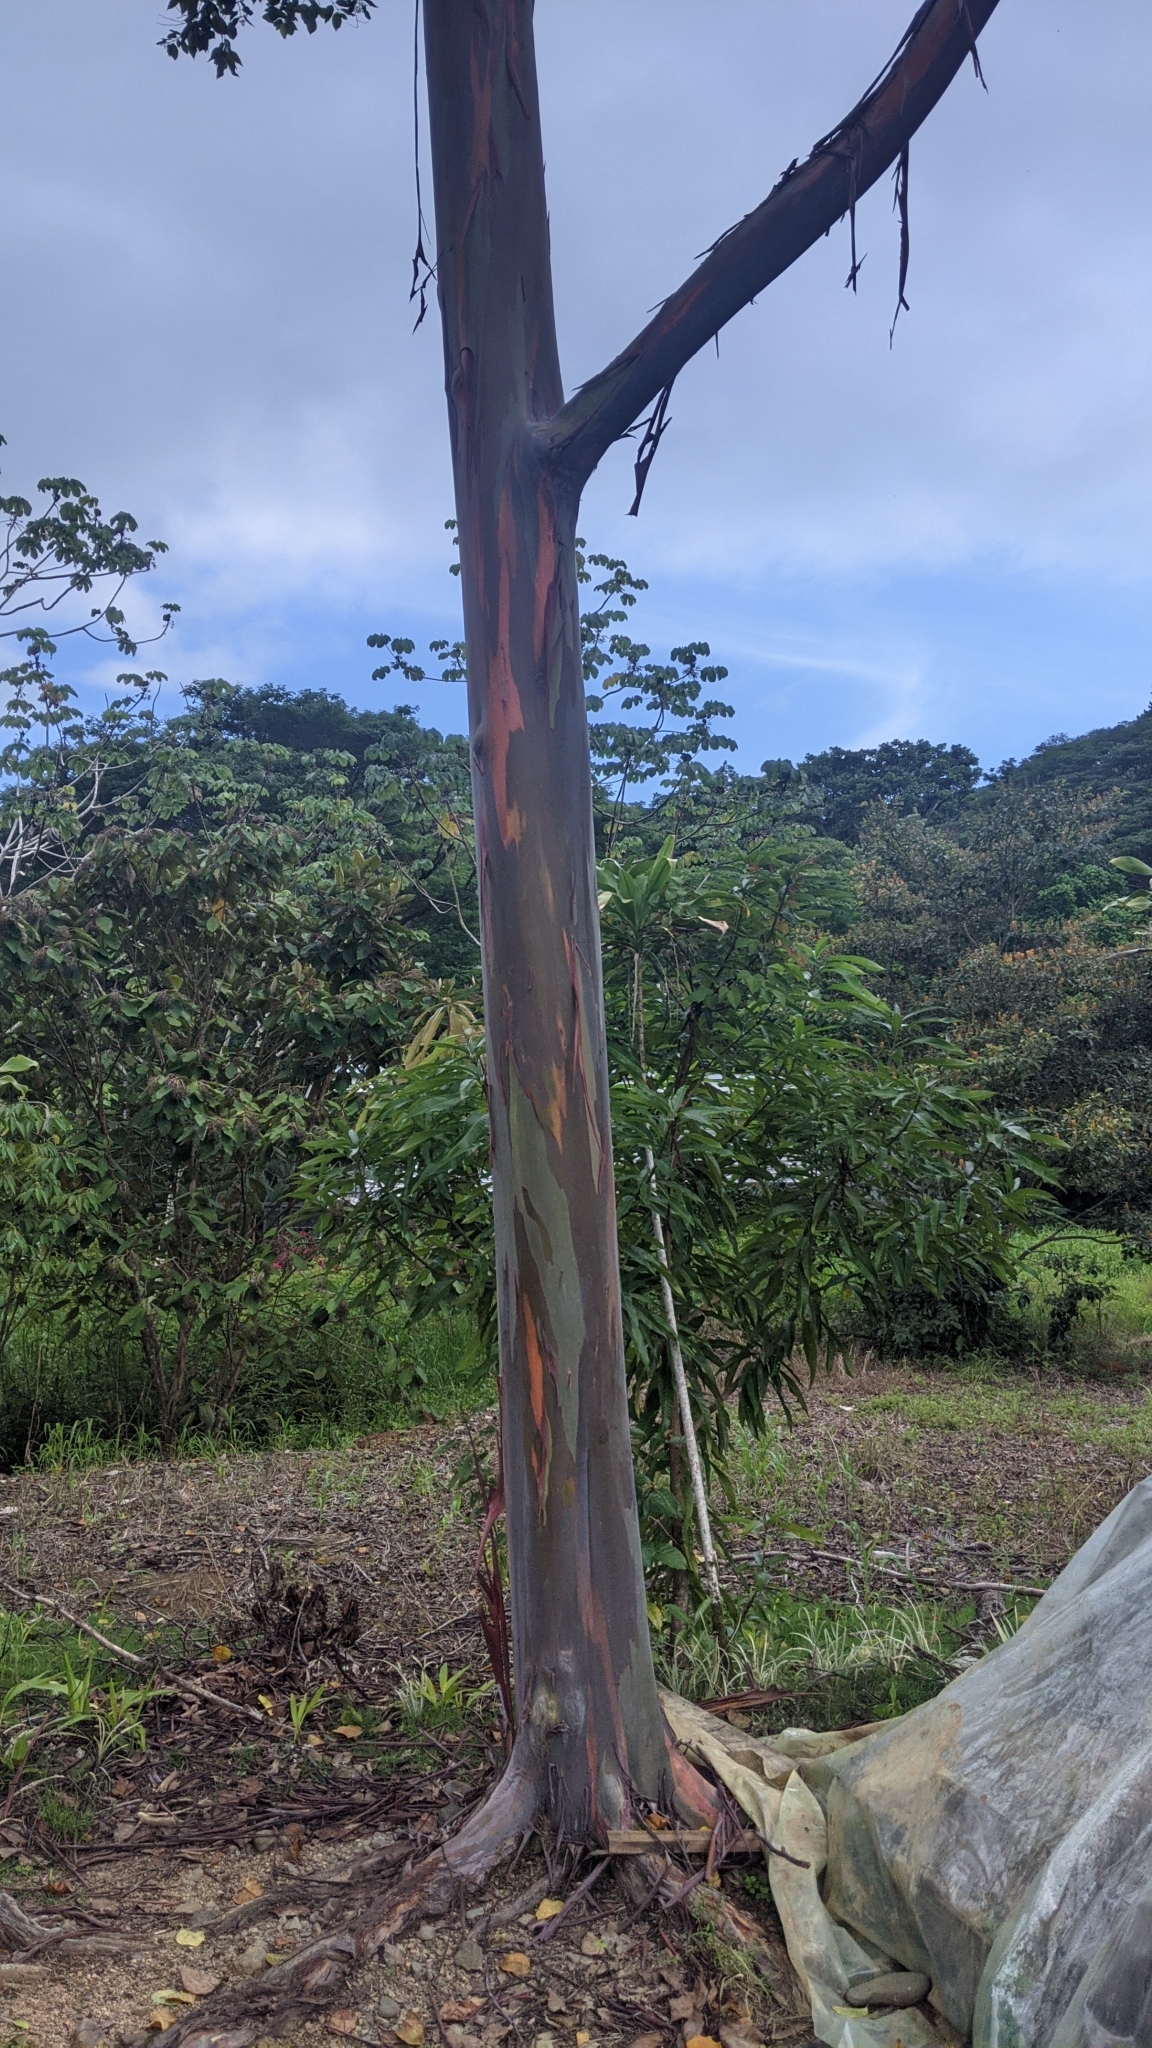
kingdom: Plantae
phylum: Tracheophyta
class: Magnoliopsida
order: Myrtales
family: Myrtaceae
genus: Eucalyptus
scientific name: Eucalyptus deglupta
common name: Mindanao gum
